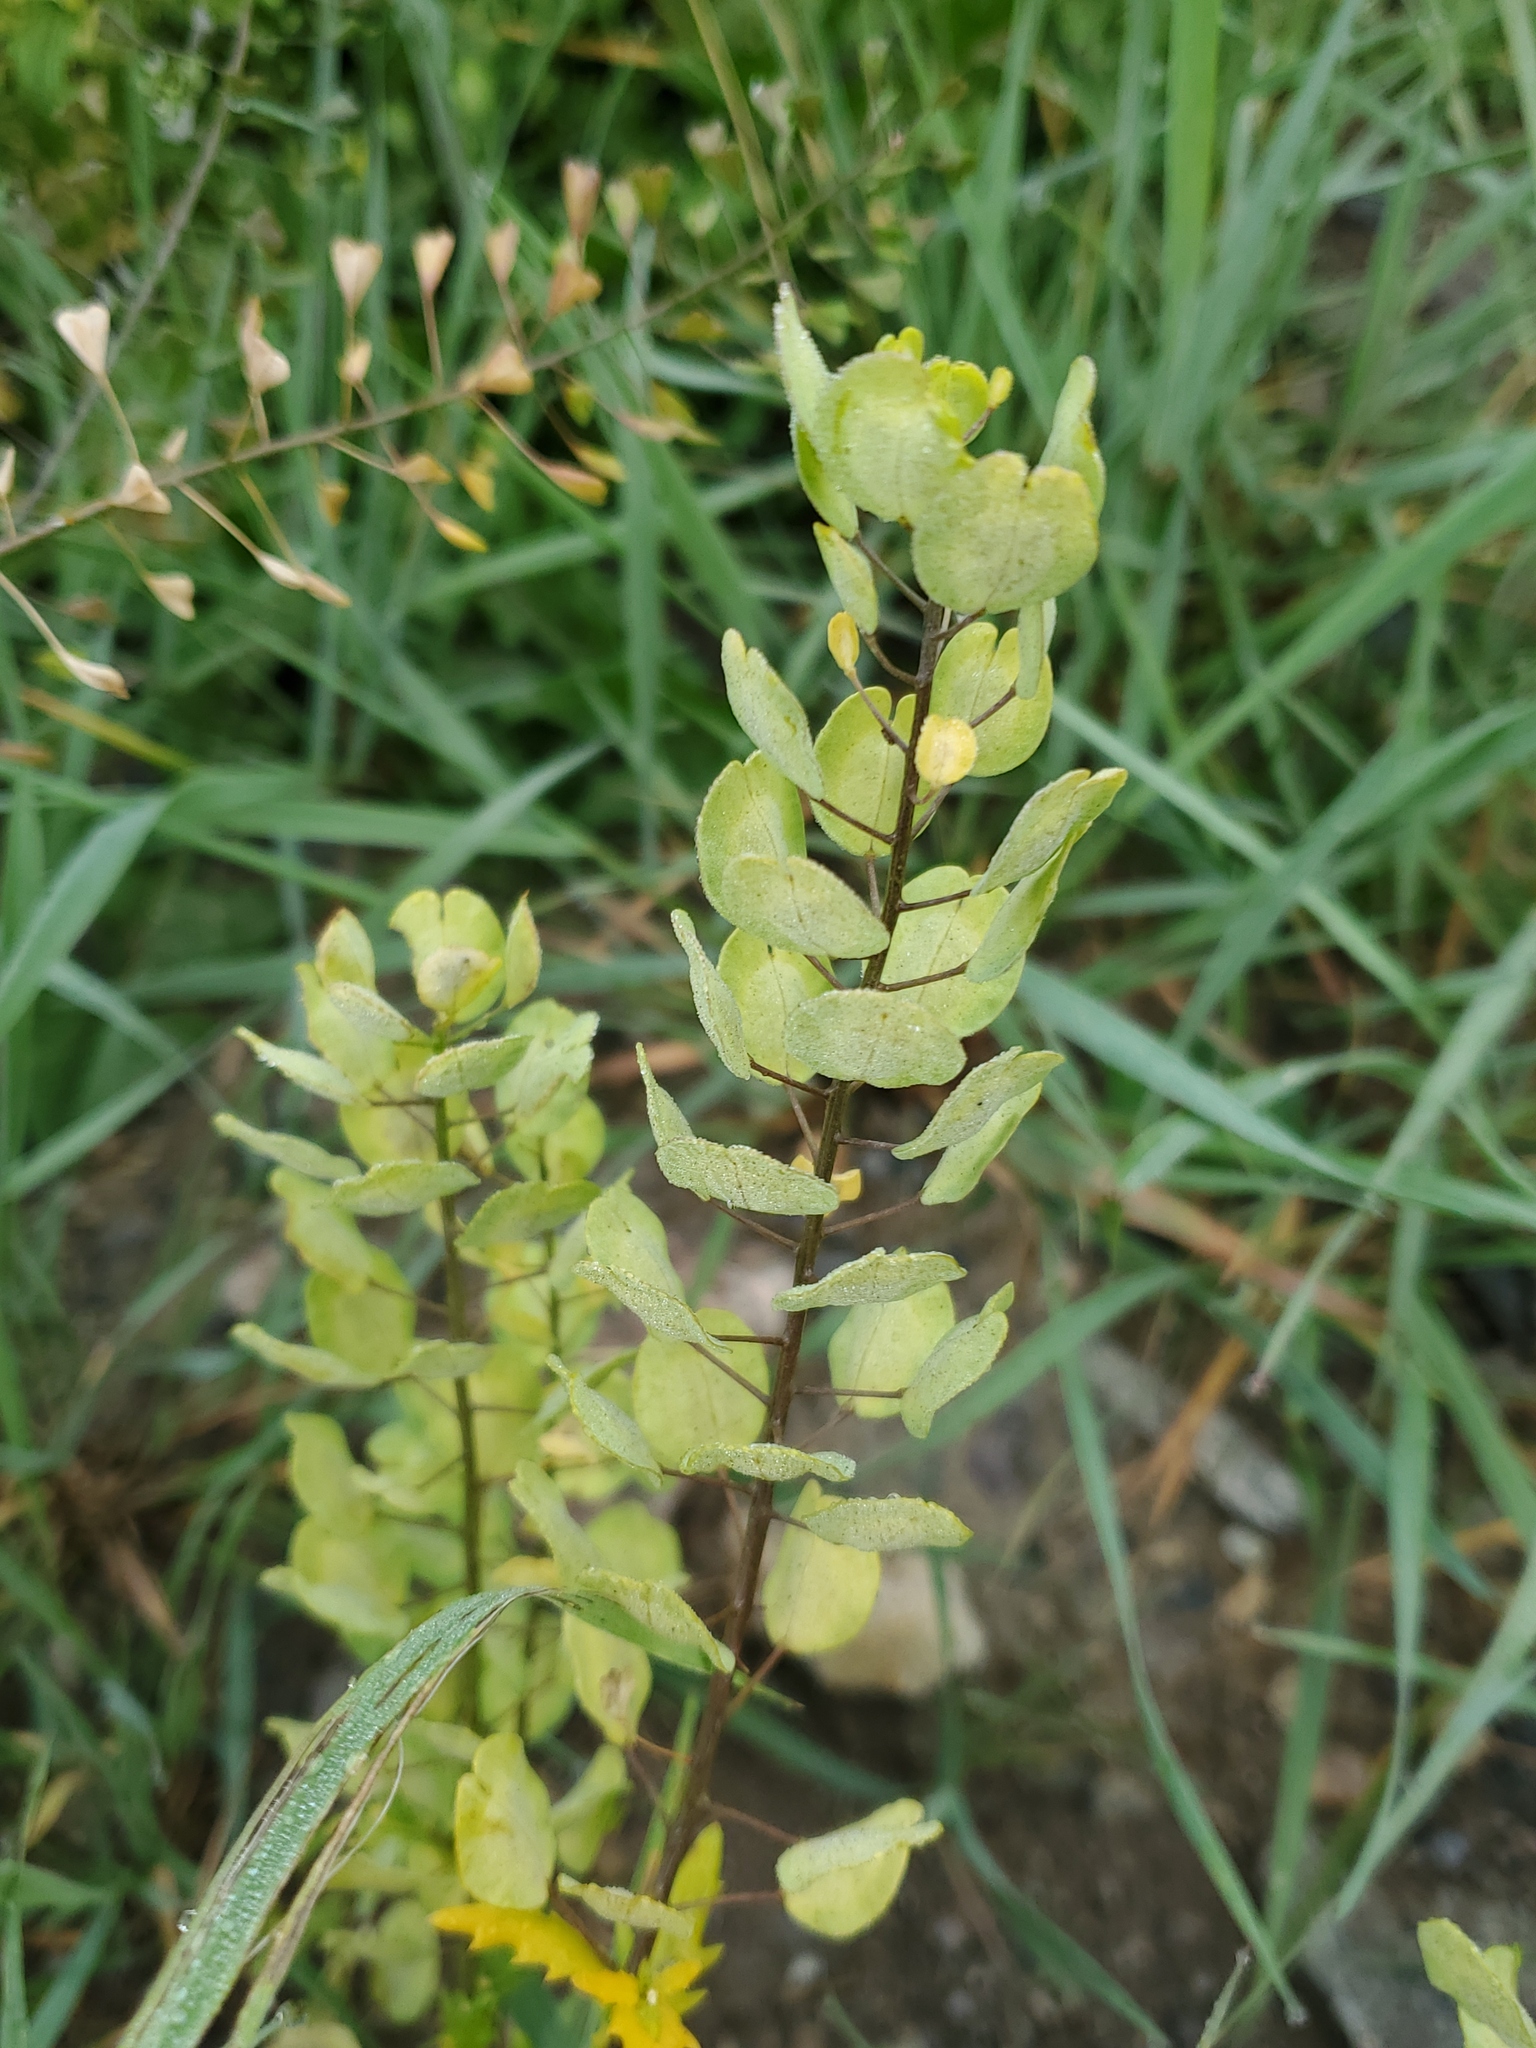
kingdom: Plantae
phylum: Tracheophyta
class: Magnoliopsida
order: Brassicales
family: Brassicaceae
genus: Thlaspi
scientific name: Thlaspi arvense
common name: Field pennycress
